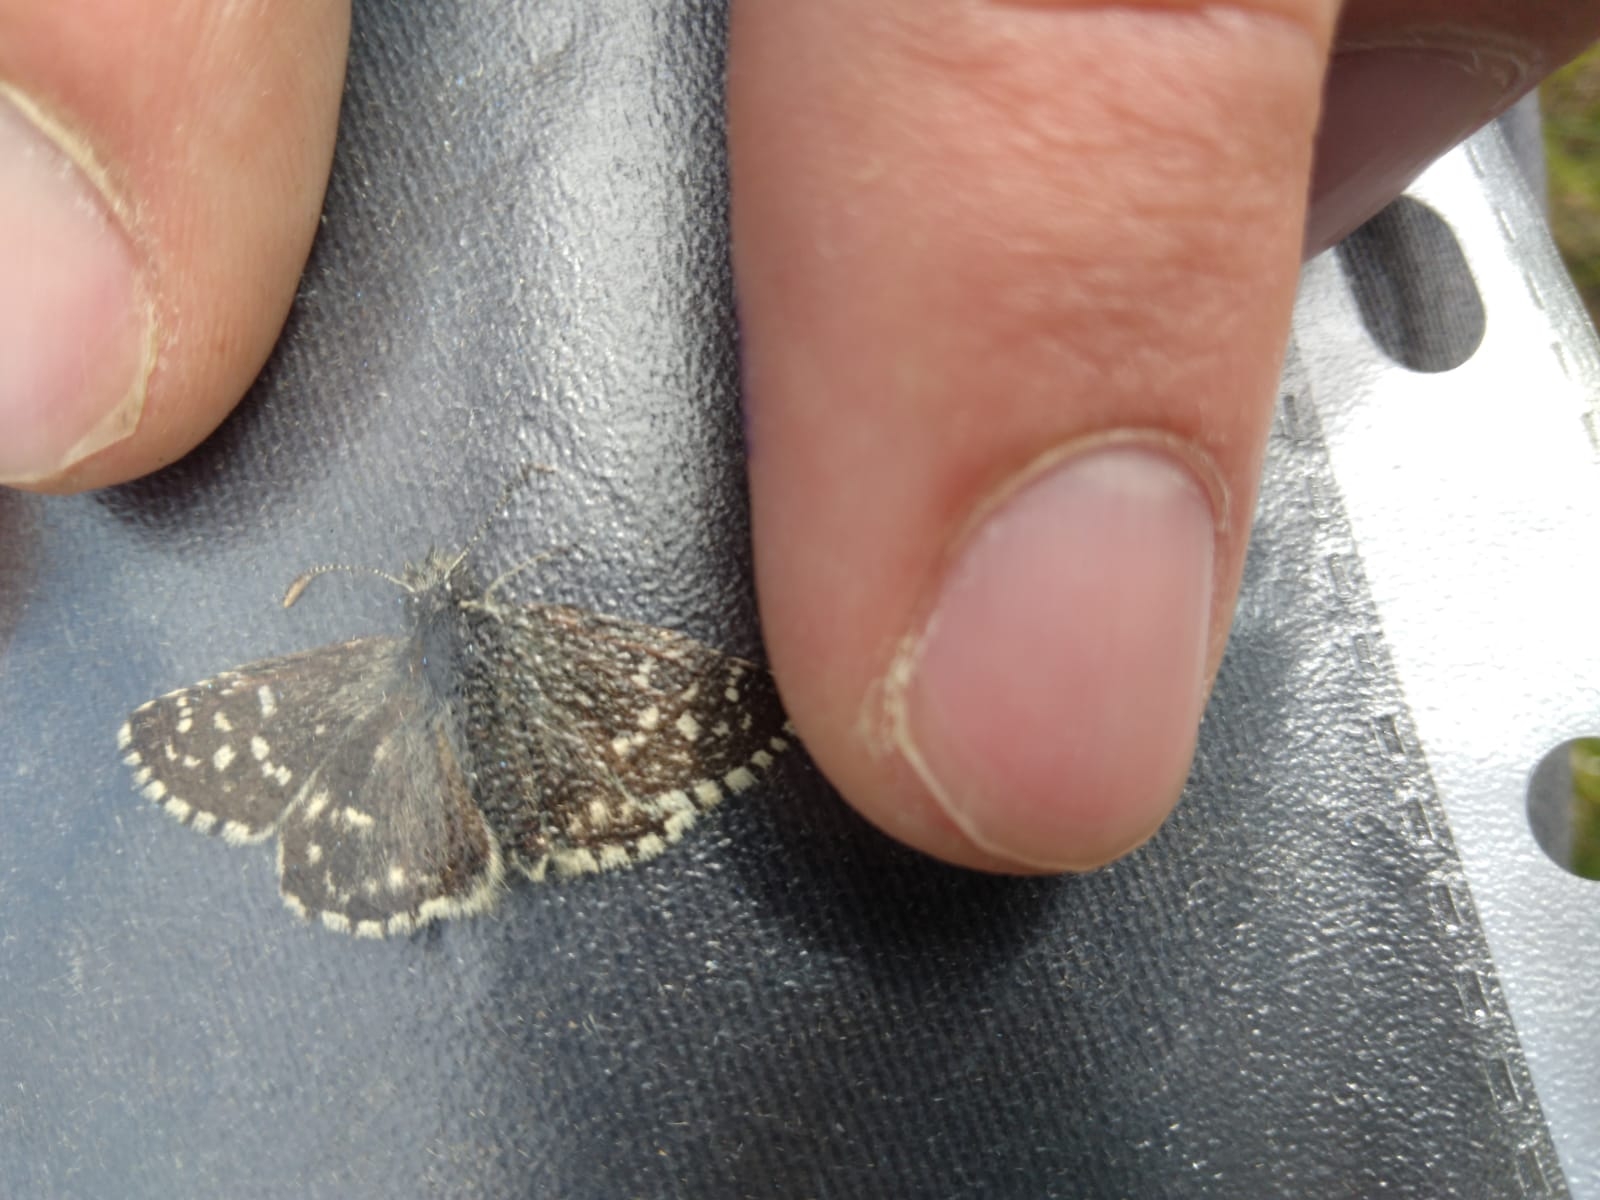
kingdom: Animalia
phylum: Arthropoda
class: Insecta
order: Lepidoptera
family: Hesperiidae
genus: Pyrgus
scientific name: Pyrgus malvae
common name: Grizzled skipper
